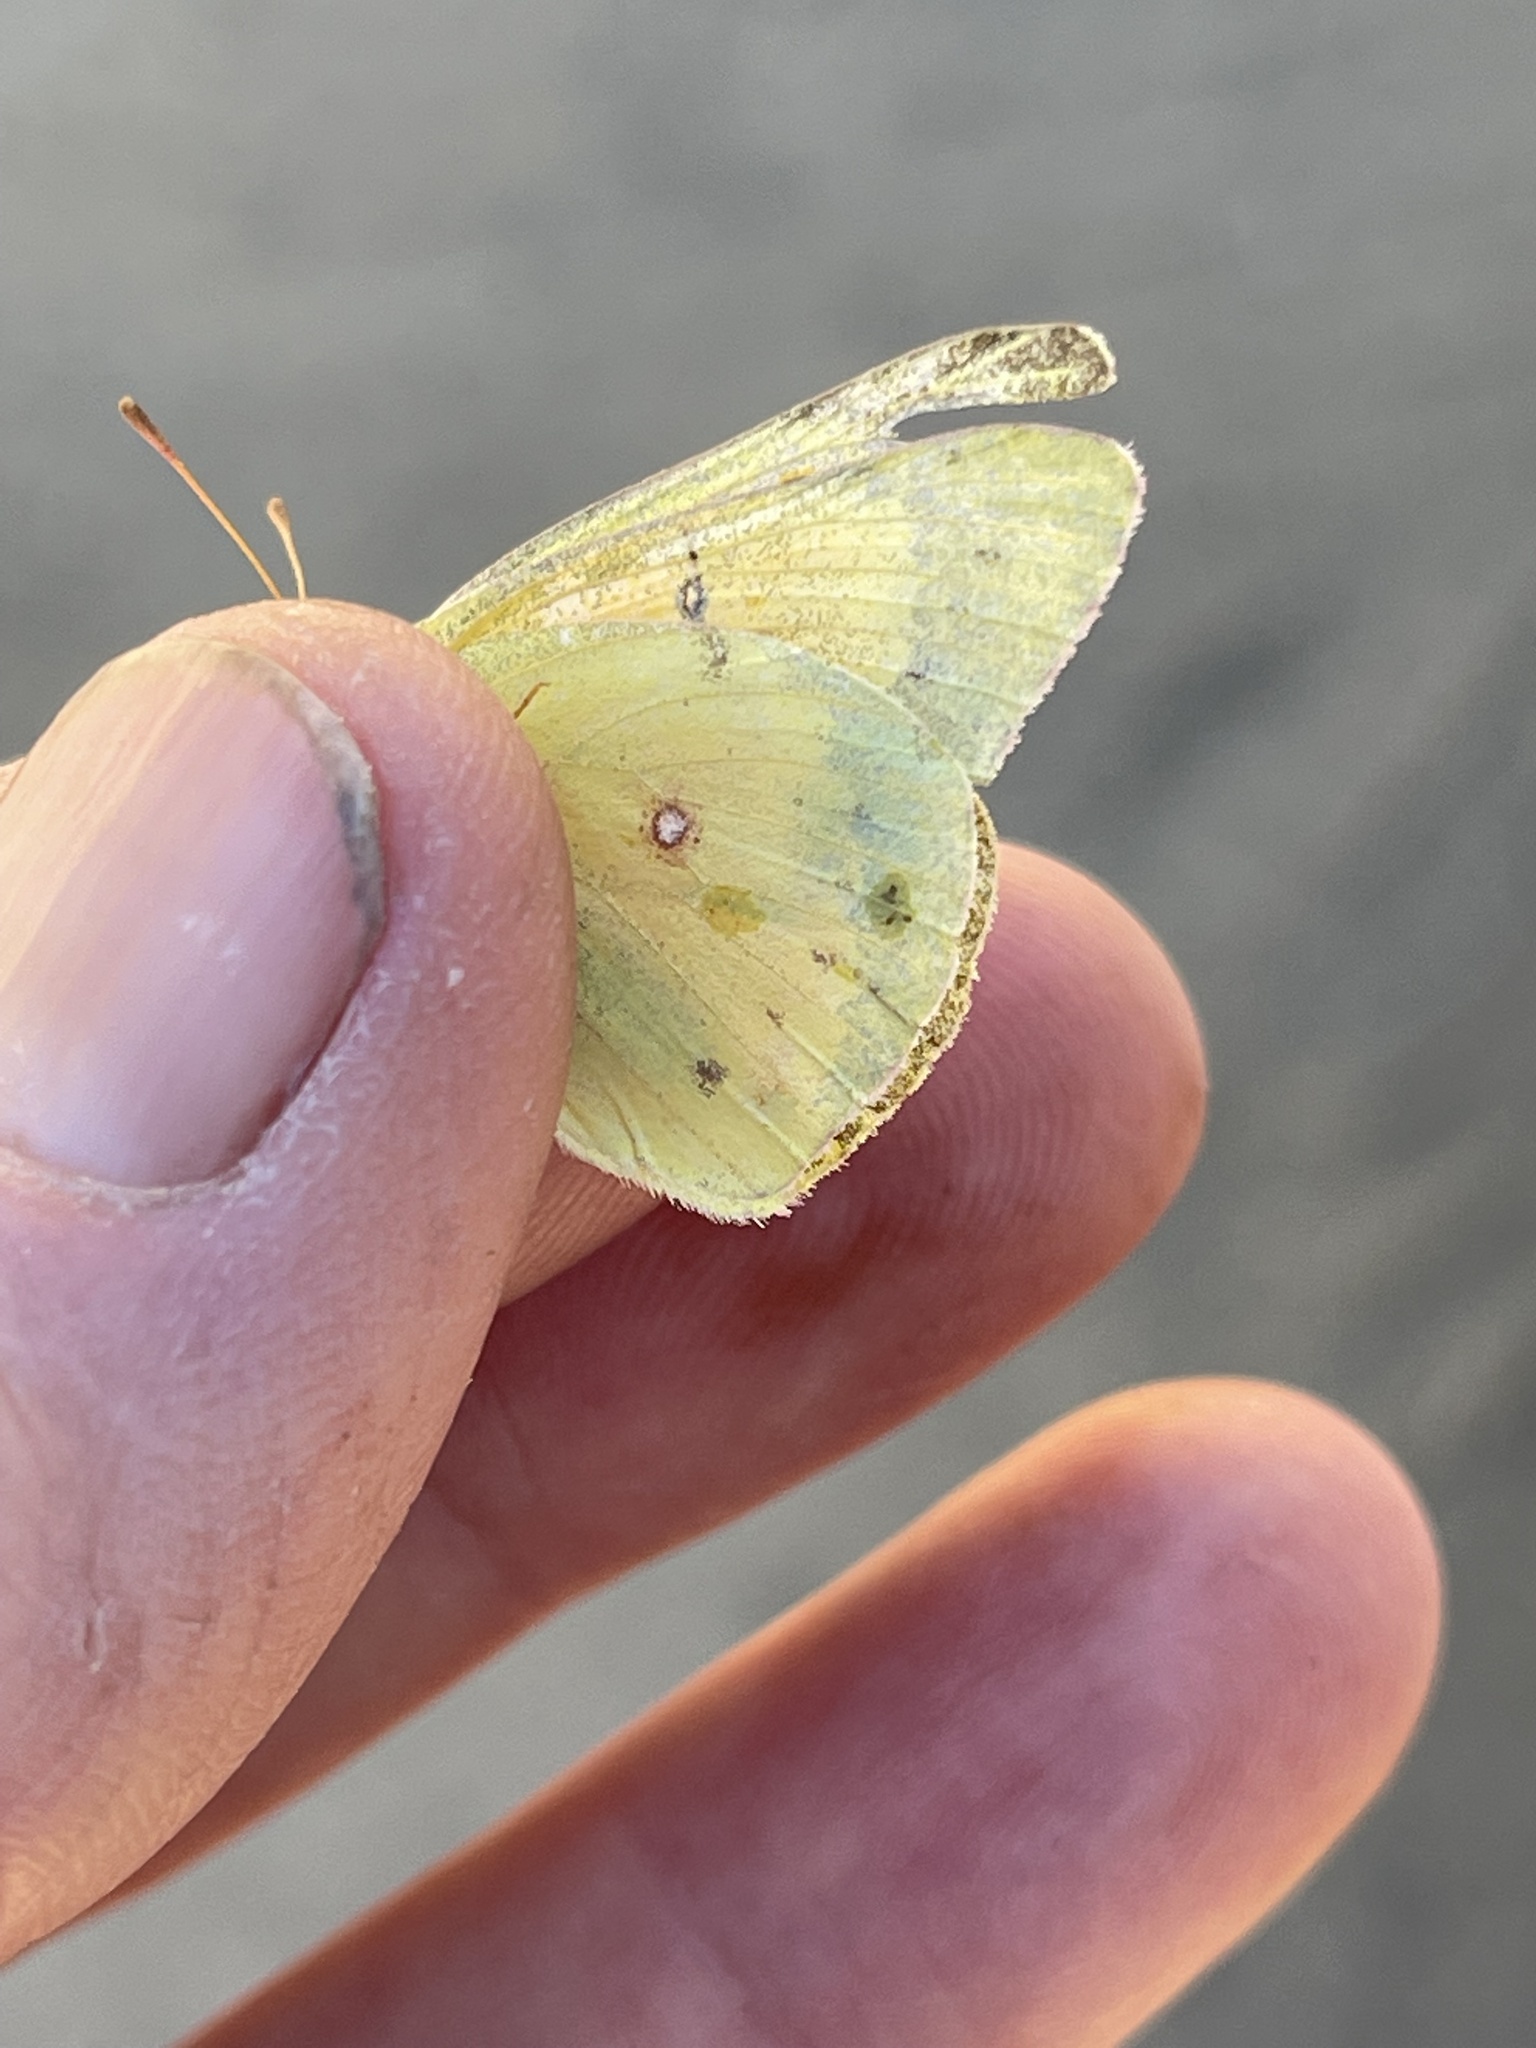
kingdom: Animalia
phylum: Arthropoda
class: Insecta
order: Lepidoptera
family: Pieridae
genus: Colias
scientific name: Colias eurytheme
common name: Alfalfa butterfly
